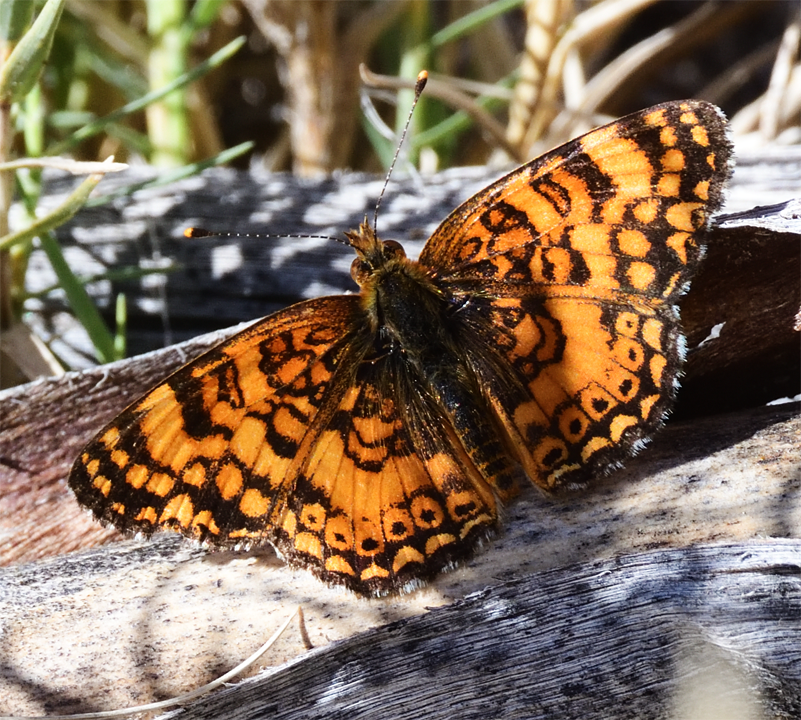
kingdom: Animalia
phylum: Arthropoda
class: Insecta
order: Lepidoptera
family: Nymphalidae
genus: Eresia
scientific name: Eresia aveyrona
